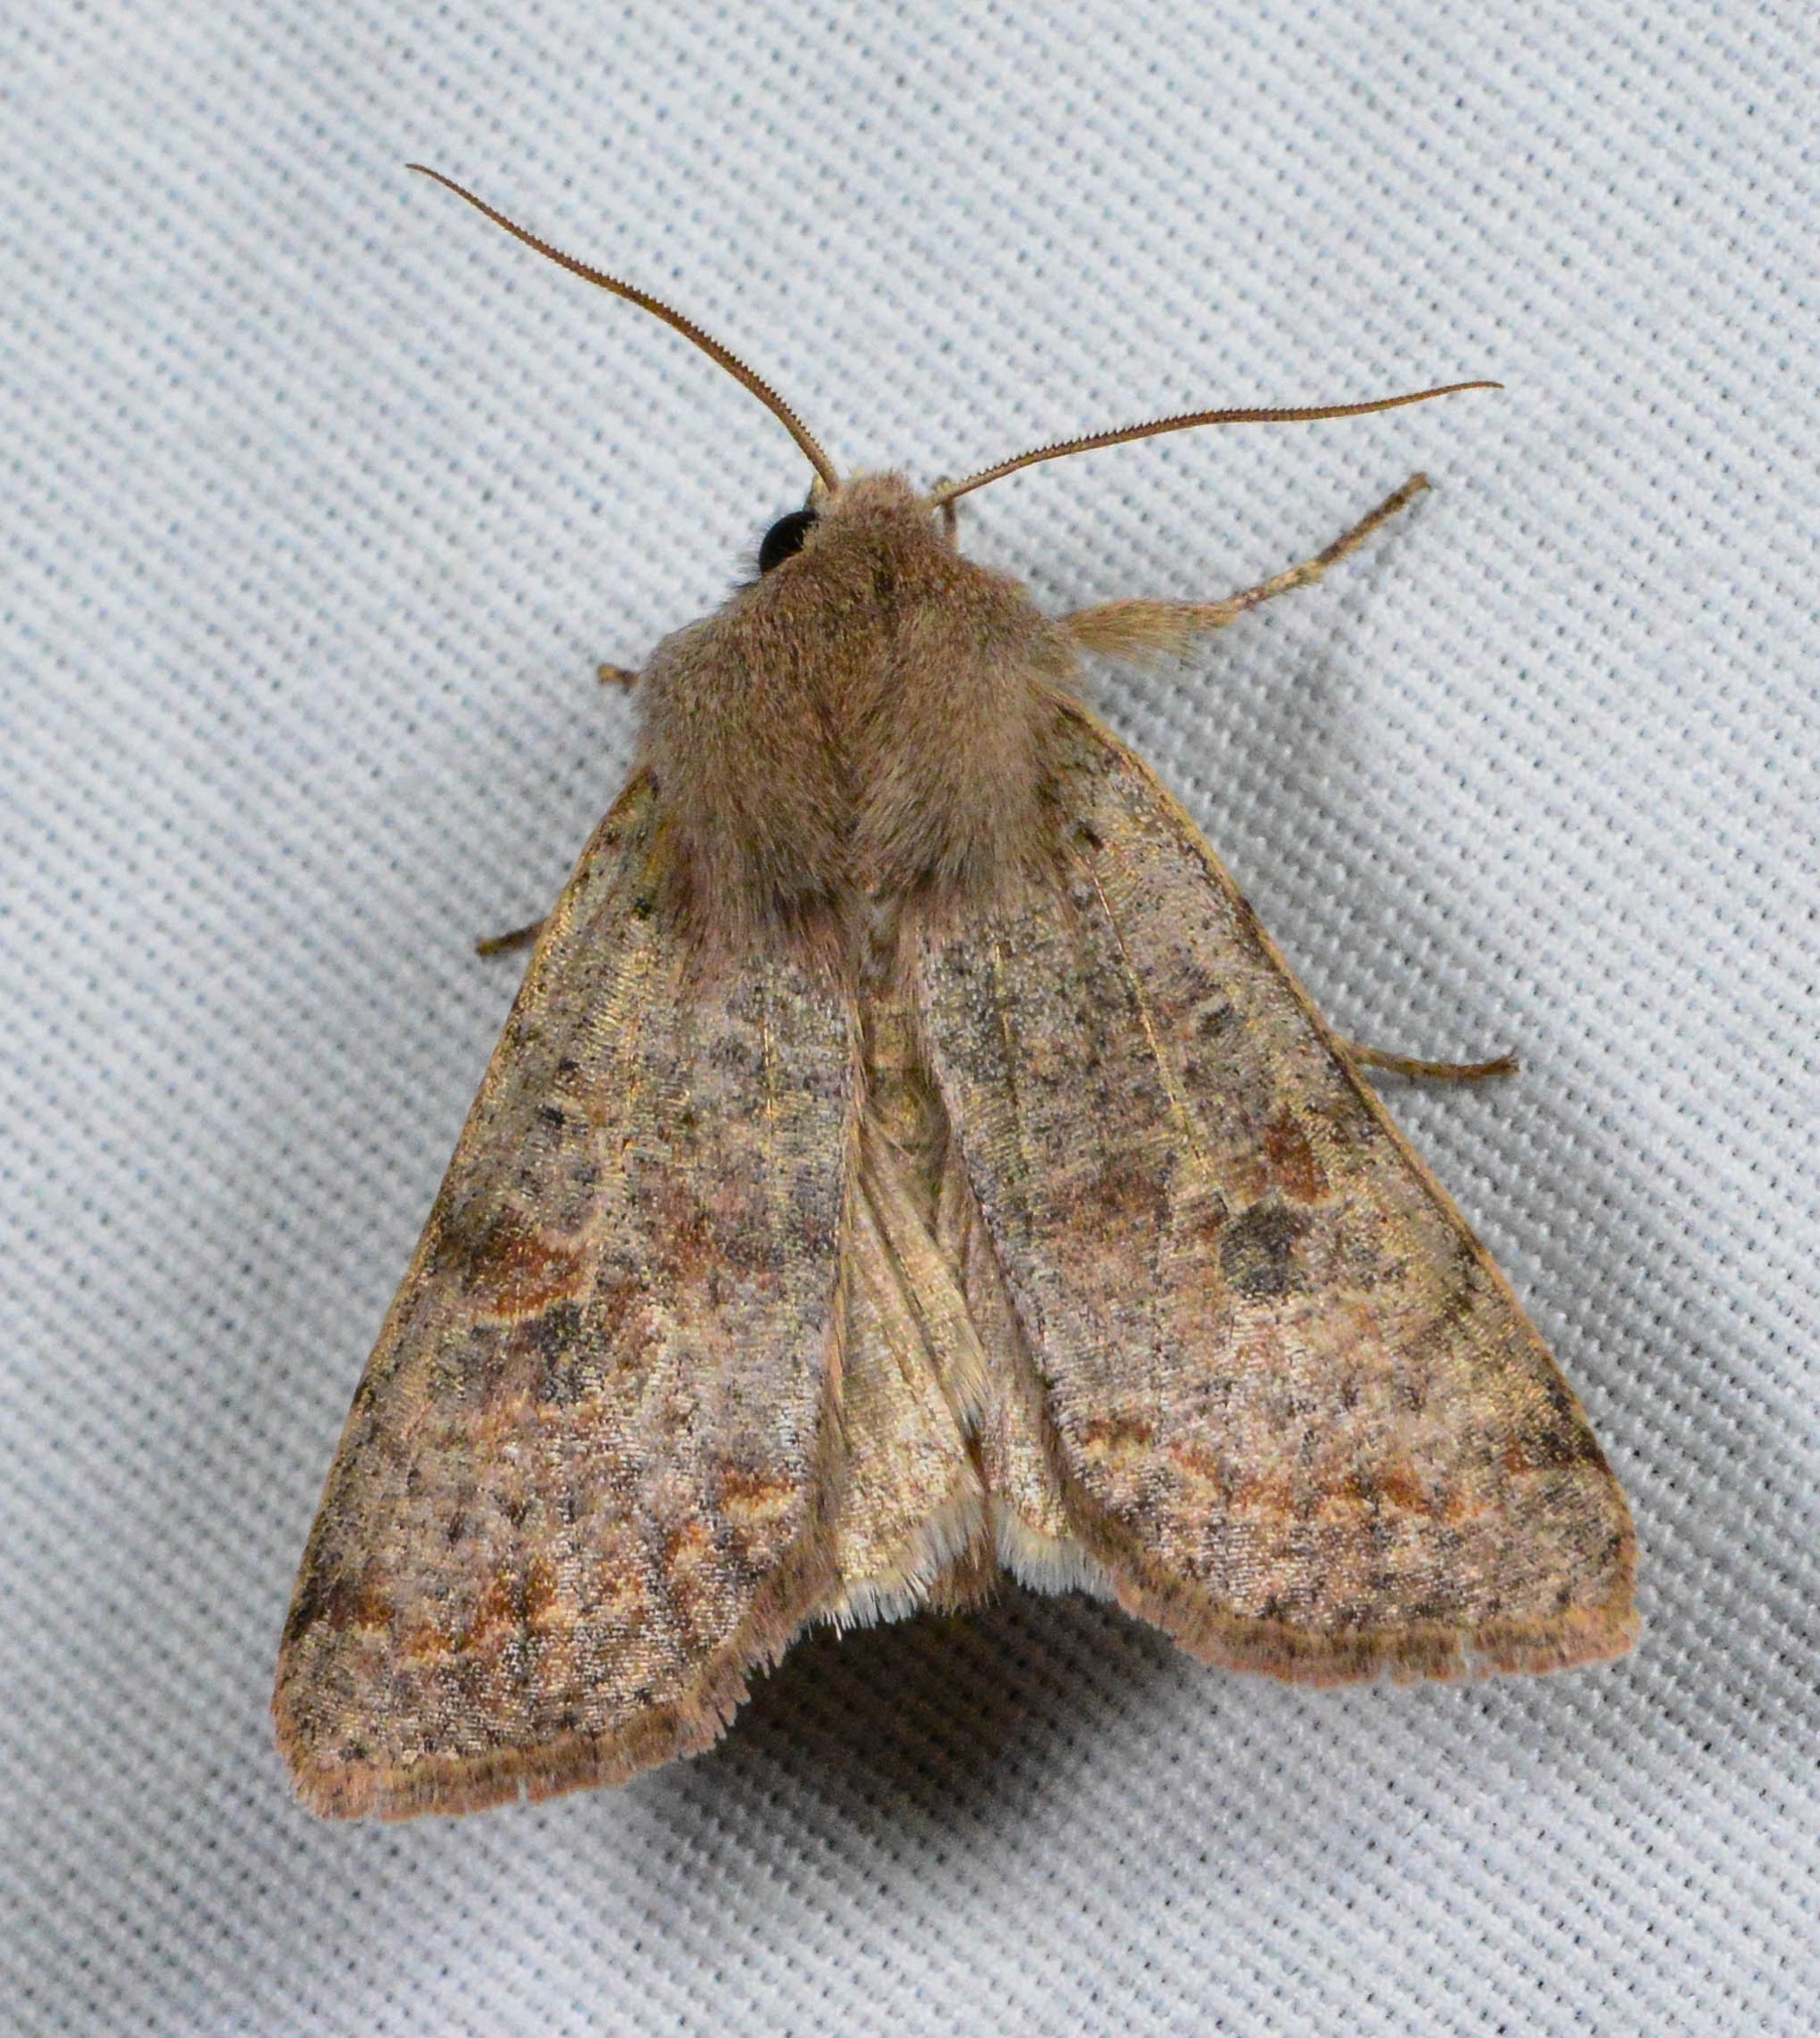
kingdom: Animalia
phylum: Arthropoda
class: Insecta
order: Lepidoptera
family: Noctuidae
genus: Orthosia
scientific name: Orthosia hibisci
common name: Green fruitworm
